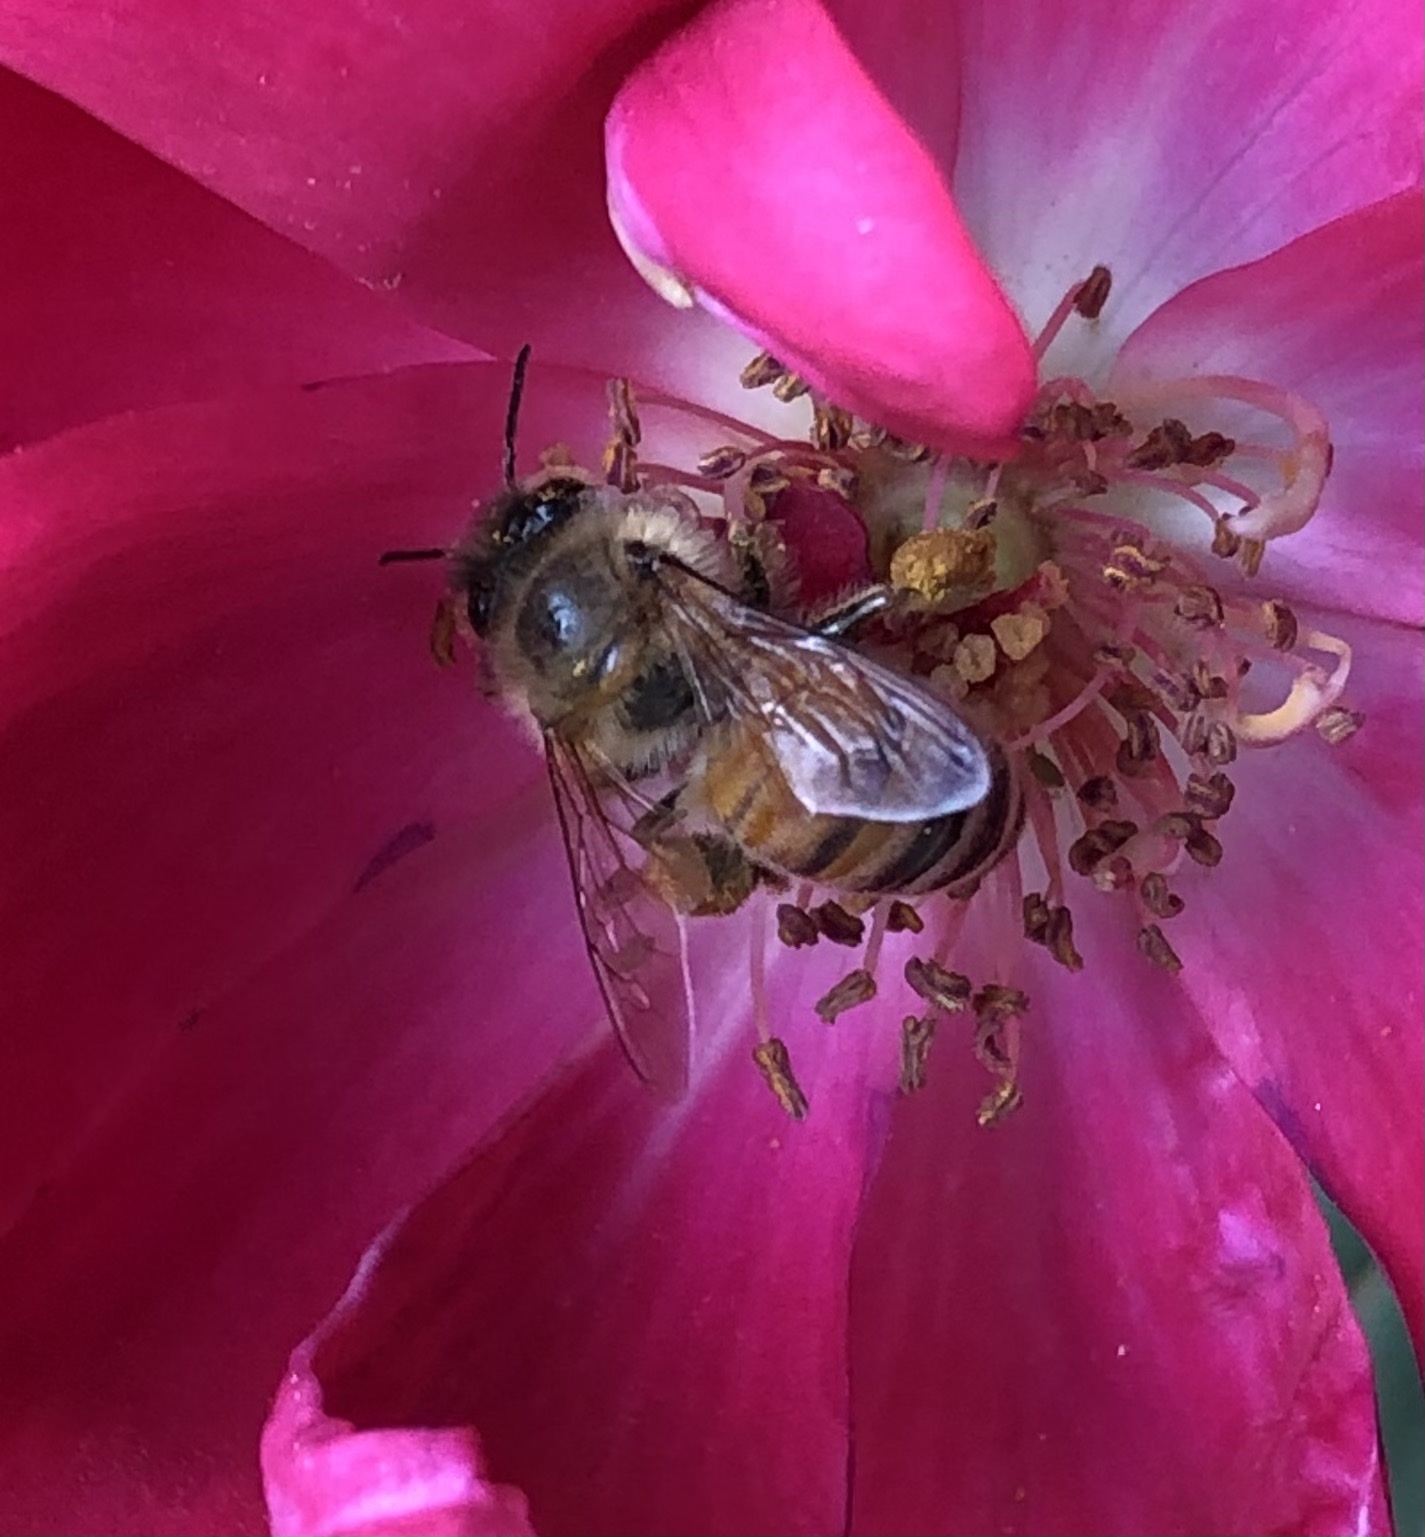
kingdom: Animalia
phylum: Arthropoda
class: Insecta
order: Hymenoptera
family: Apidae
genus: Apis
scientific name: Apis mellifera
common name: Honey bee
